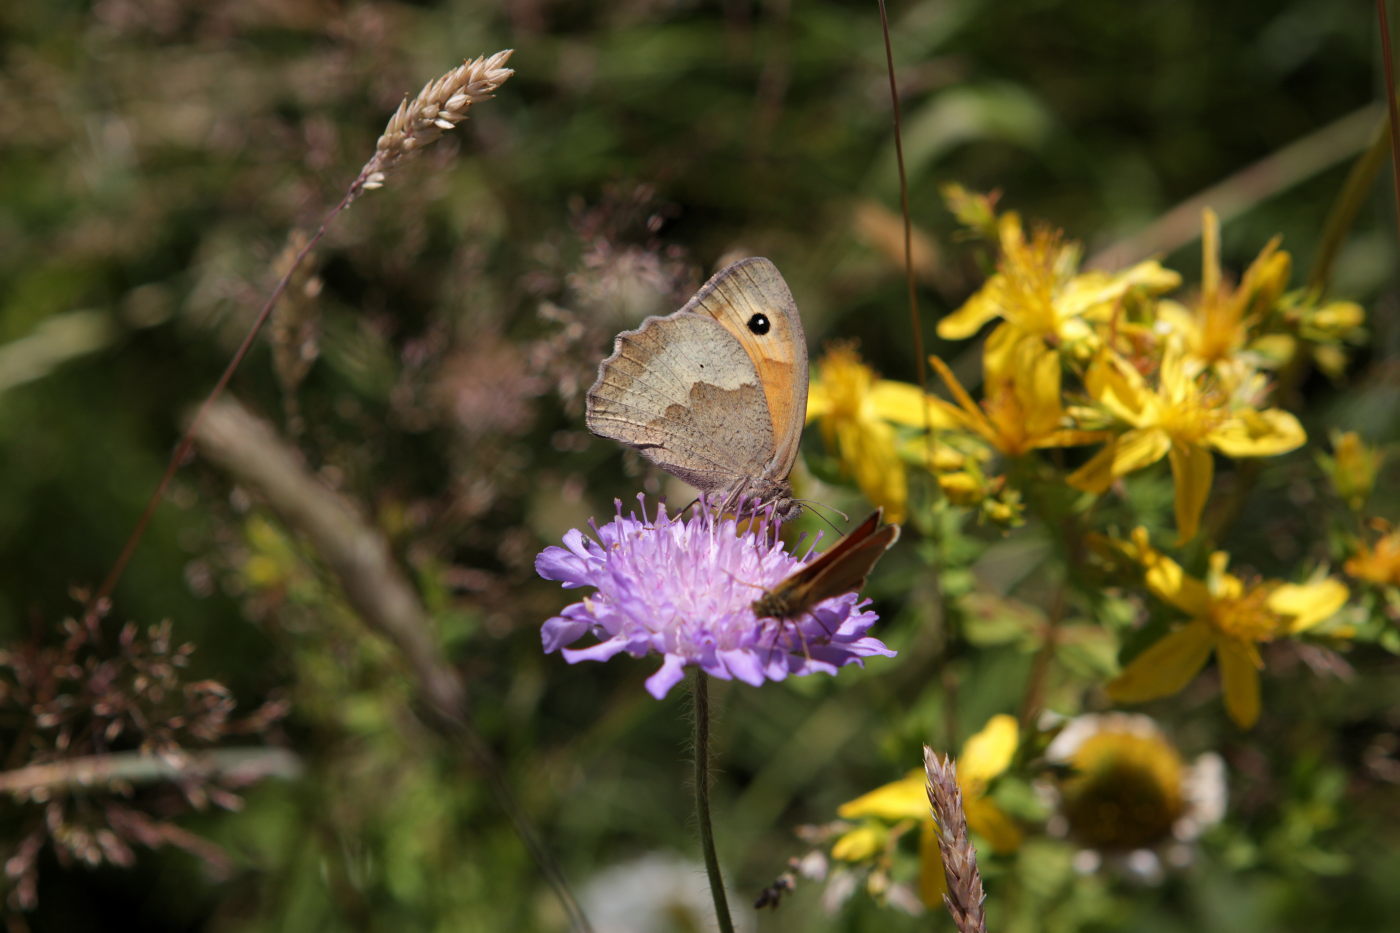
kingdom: Animalia
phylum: Arthropoda
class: Insecta
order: Lepidoptera
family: Nymphalidae
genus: Maniola
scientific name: Maniola jurtina
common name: Meadow brown
